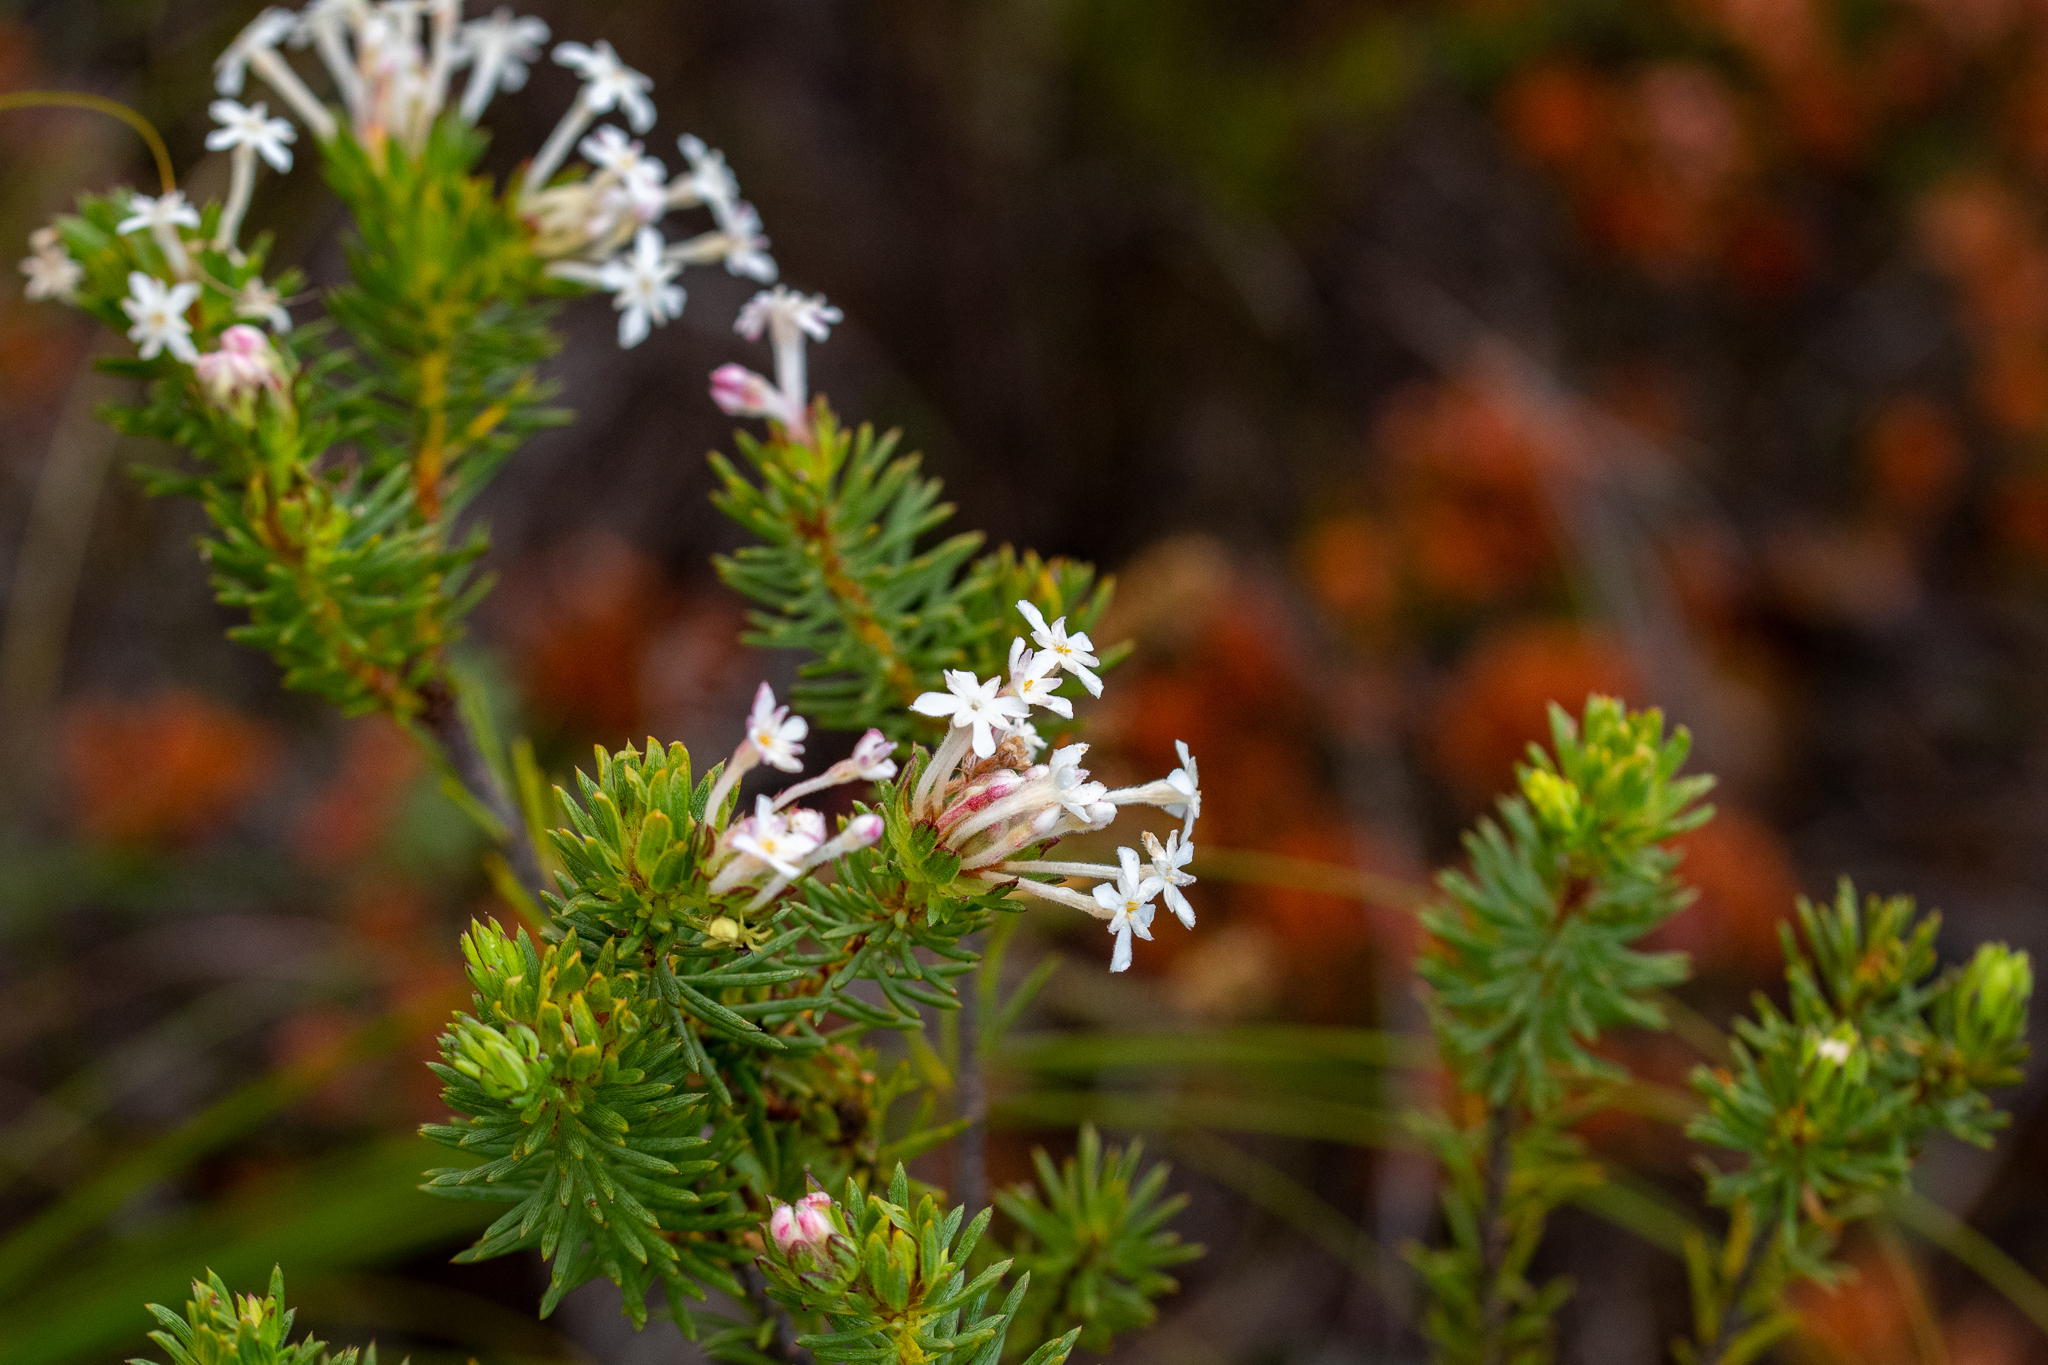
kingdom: Plantae
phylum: Tracheophyta
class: Magnoliopsida
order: Malvales
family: Thymelaeaceae
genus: Gnidia
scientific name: Gnidia pinifolia
